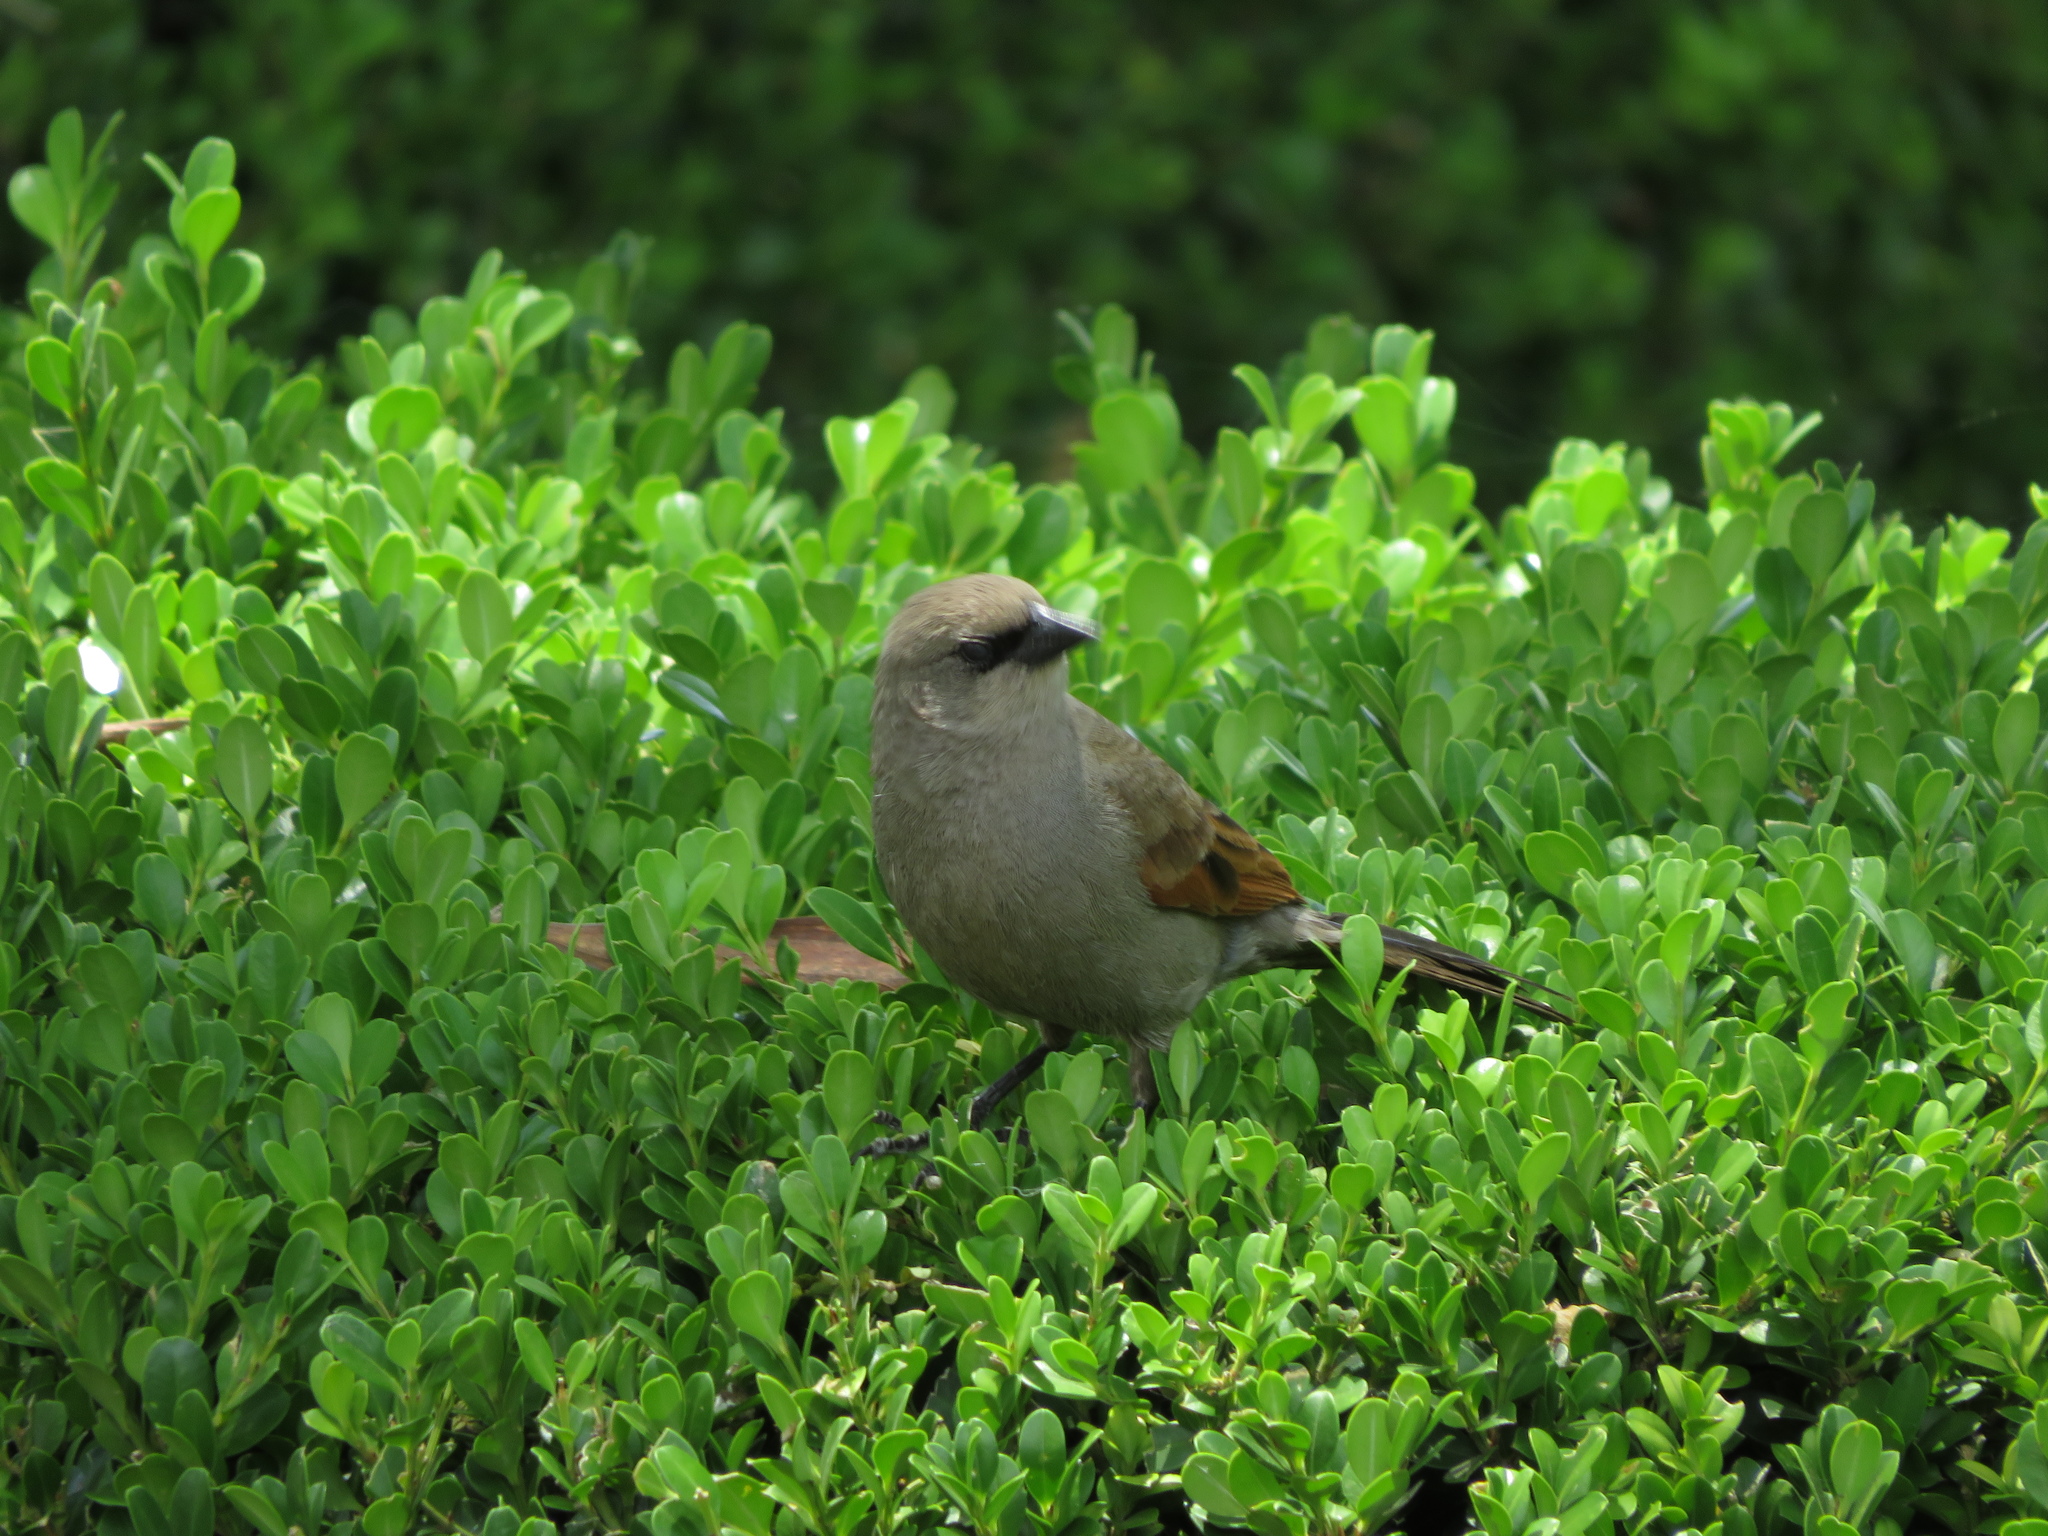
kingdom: Animalia
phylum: Chordata
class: Aves
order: Passeriformes
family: Icteridae
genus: Agelaioides
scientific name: Agelaioides badius
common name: Baywing
